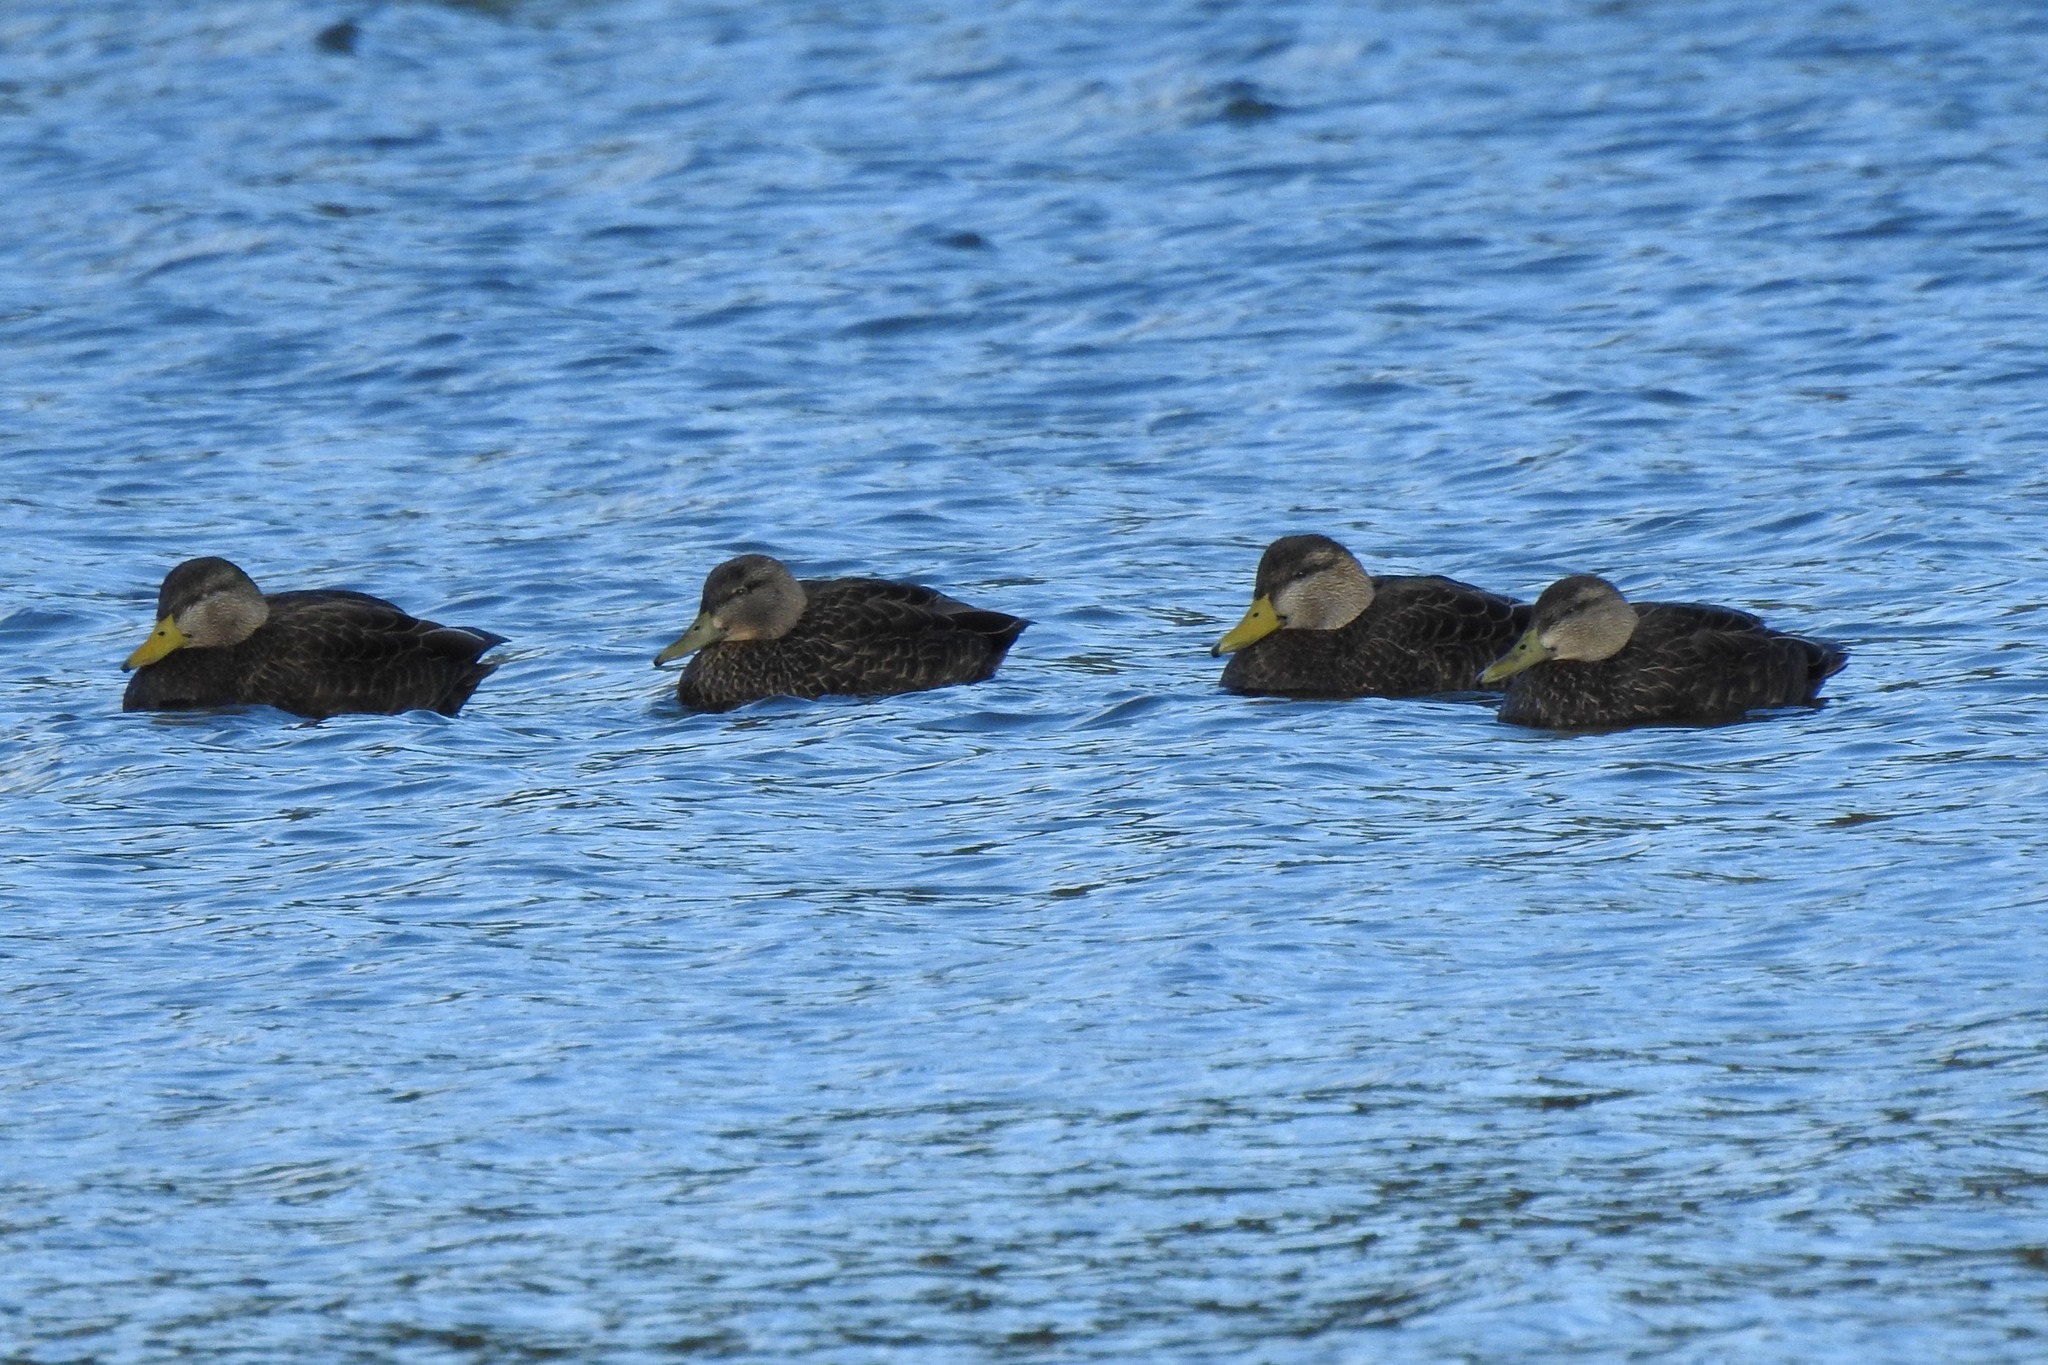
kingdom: Animalia
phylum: Chordata
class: Aves
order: Anseriformes
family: Anatidae
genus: Anas
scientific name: Anas rubripes
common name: American black duck
